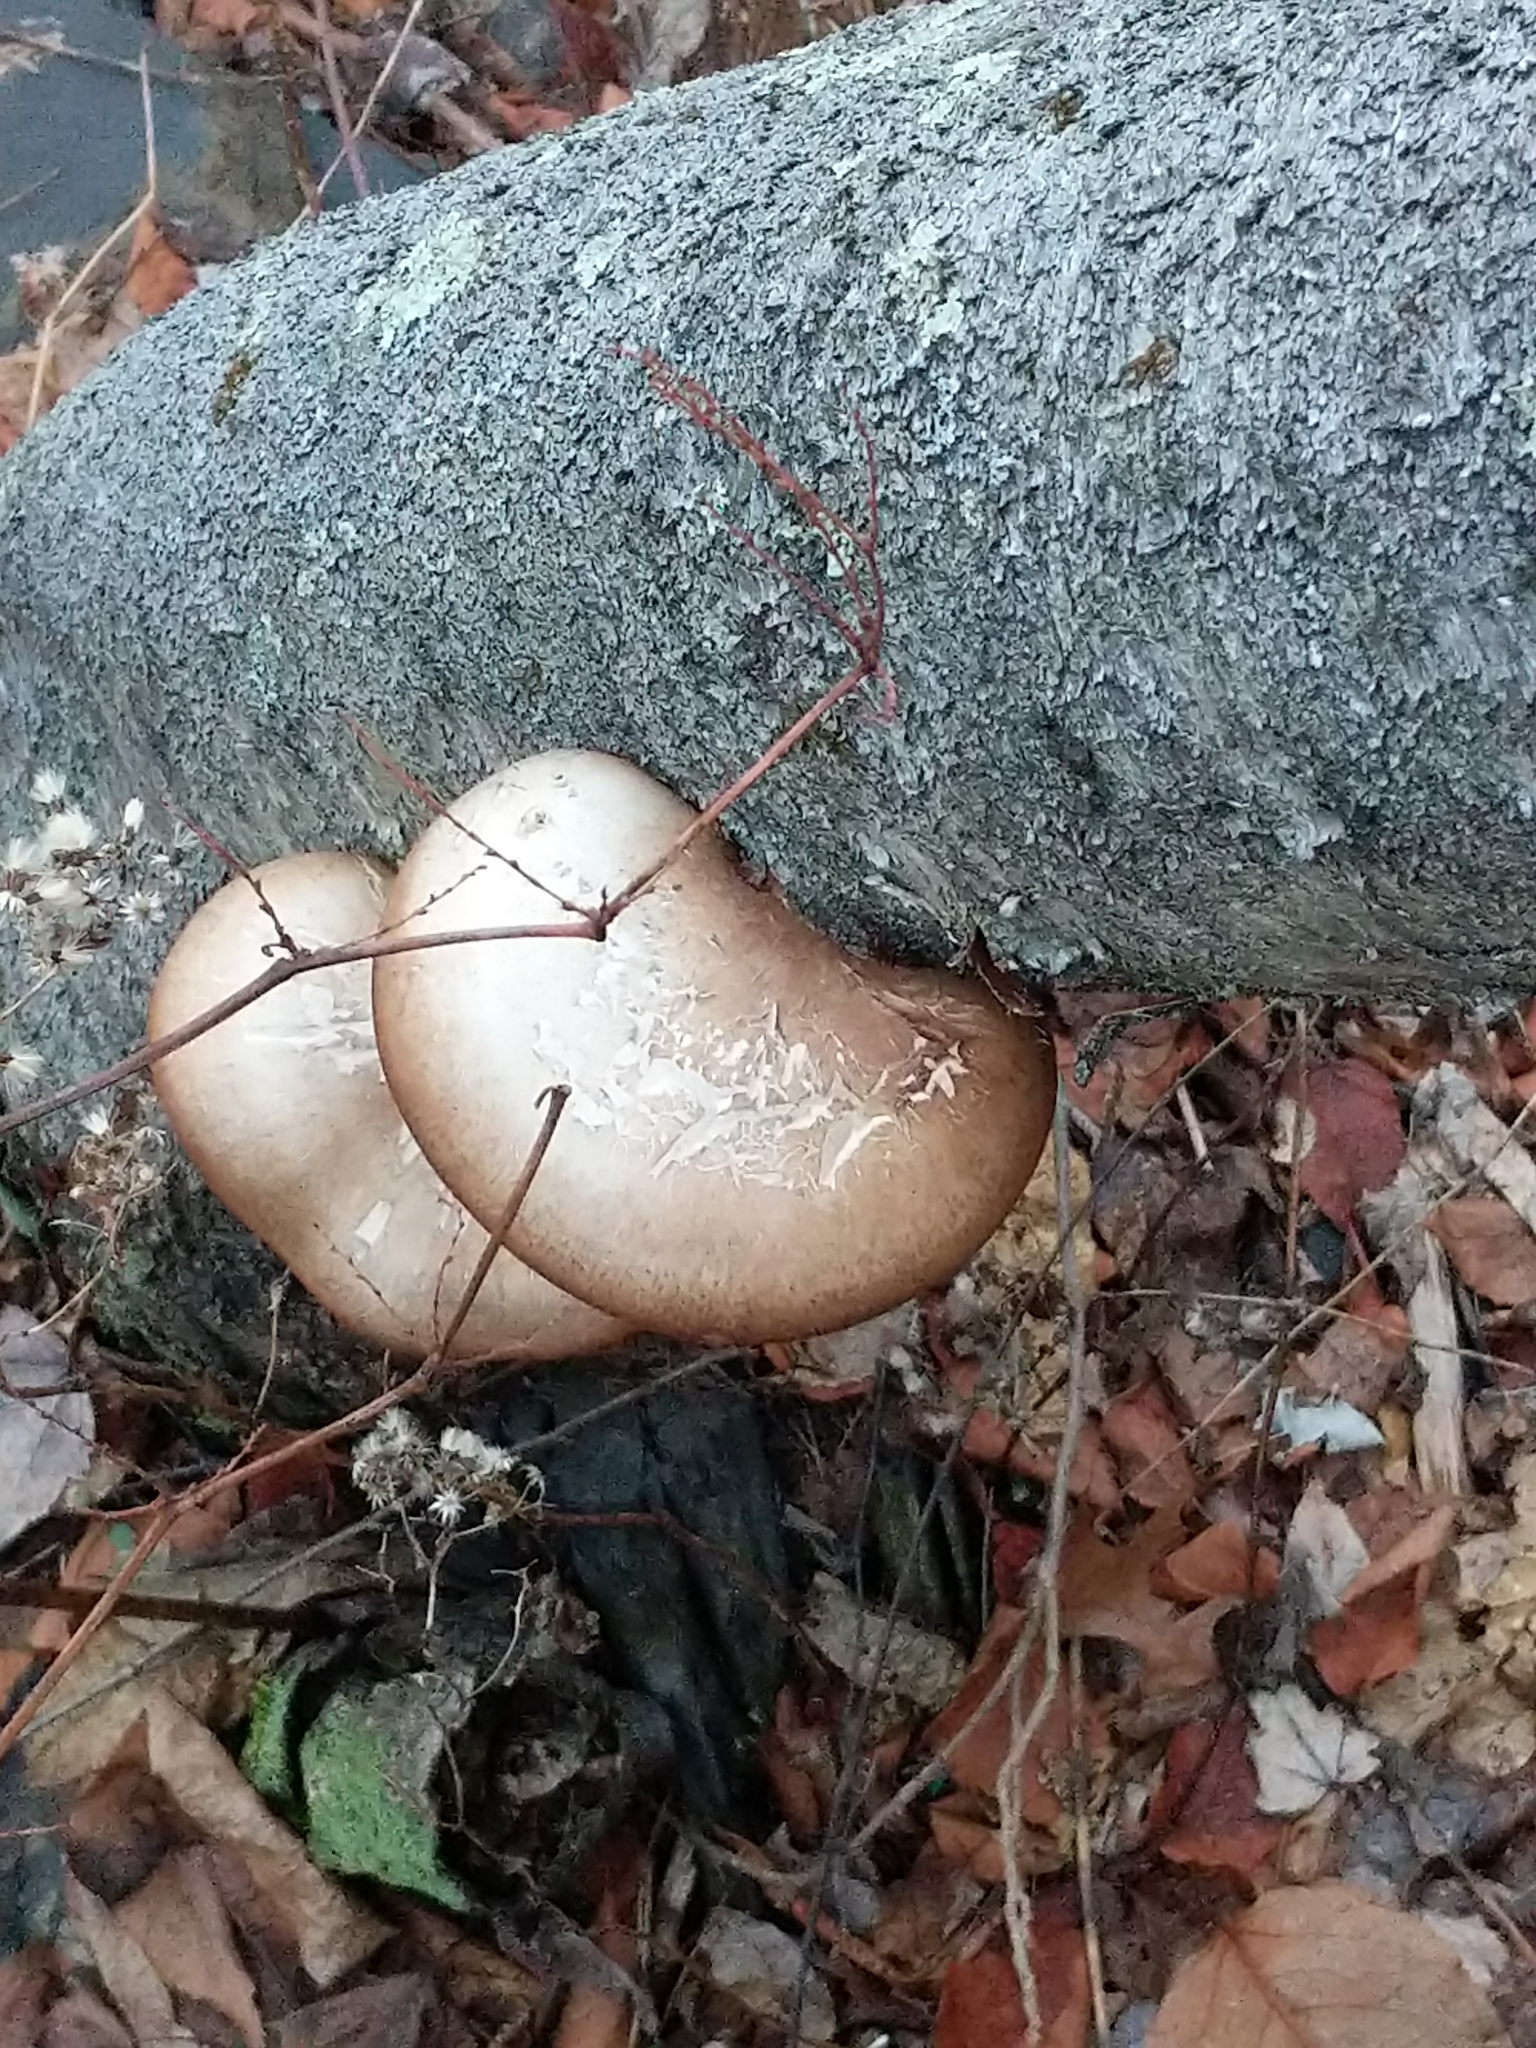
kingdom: Fungi
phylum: Basidiomycota
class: Agaricomycetes
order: Polyporales
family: Fomitopsidaceae
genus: Fomitopsis
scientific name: Fomitopsis betulina
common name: Birch polypore
